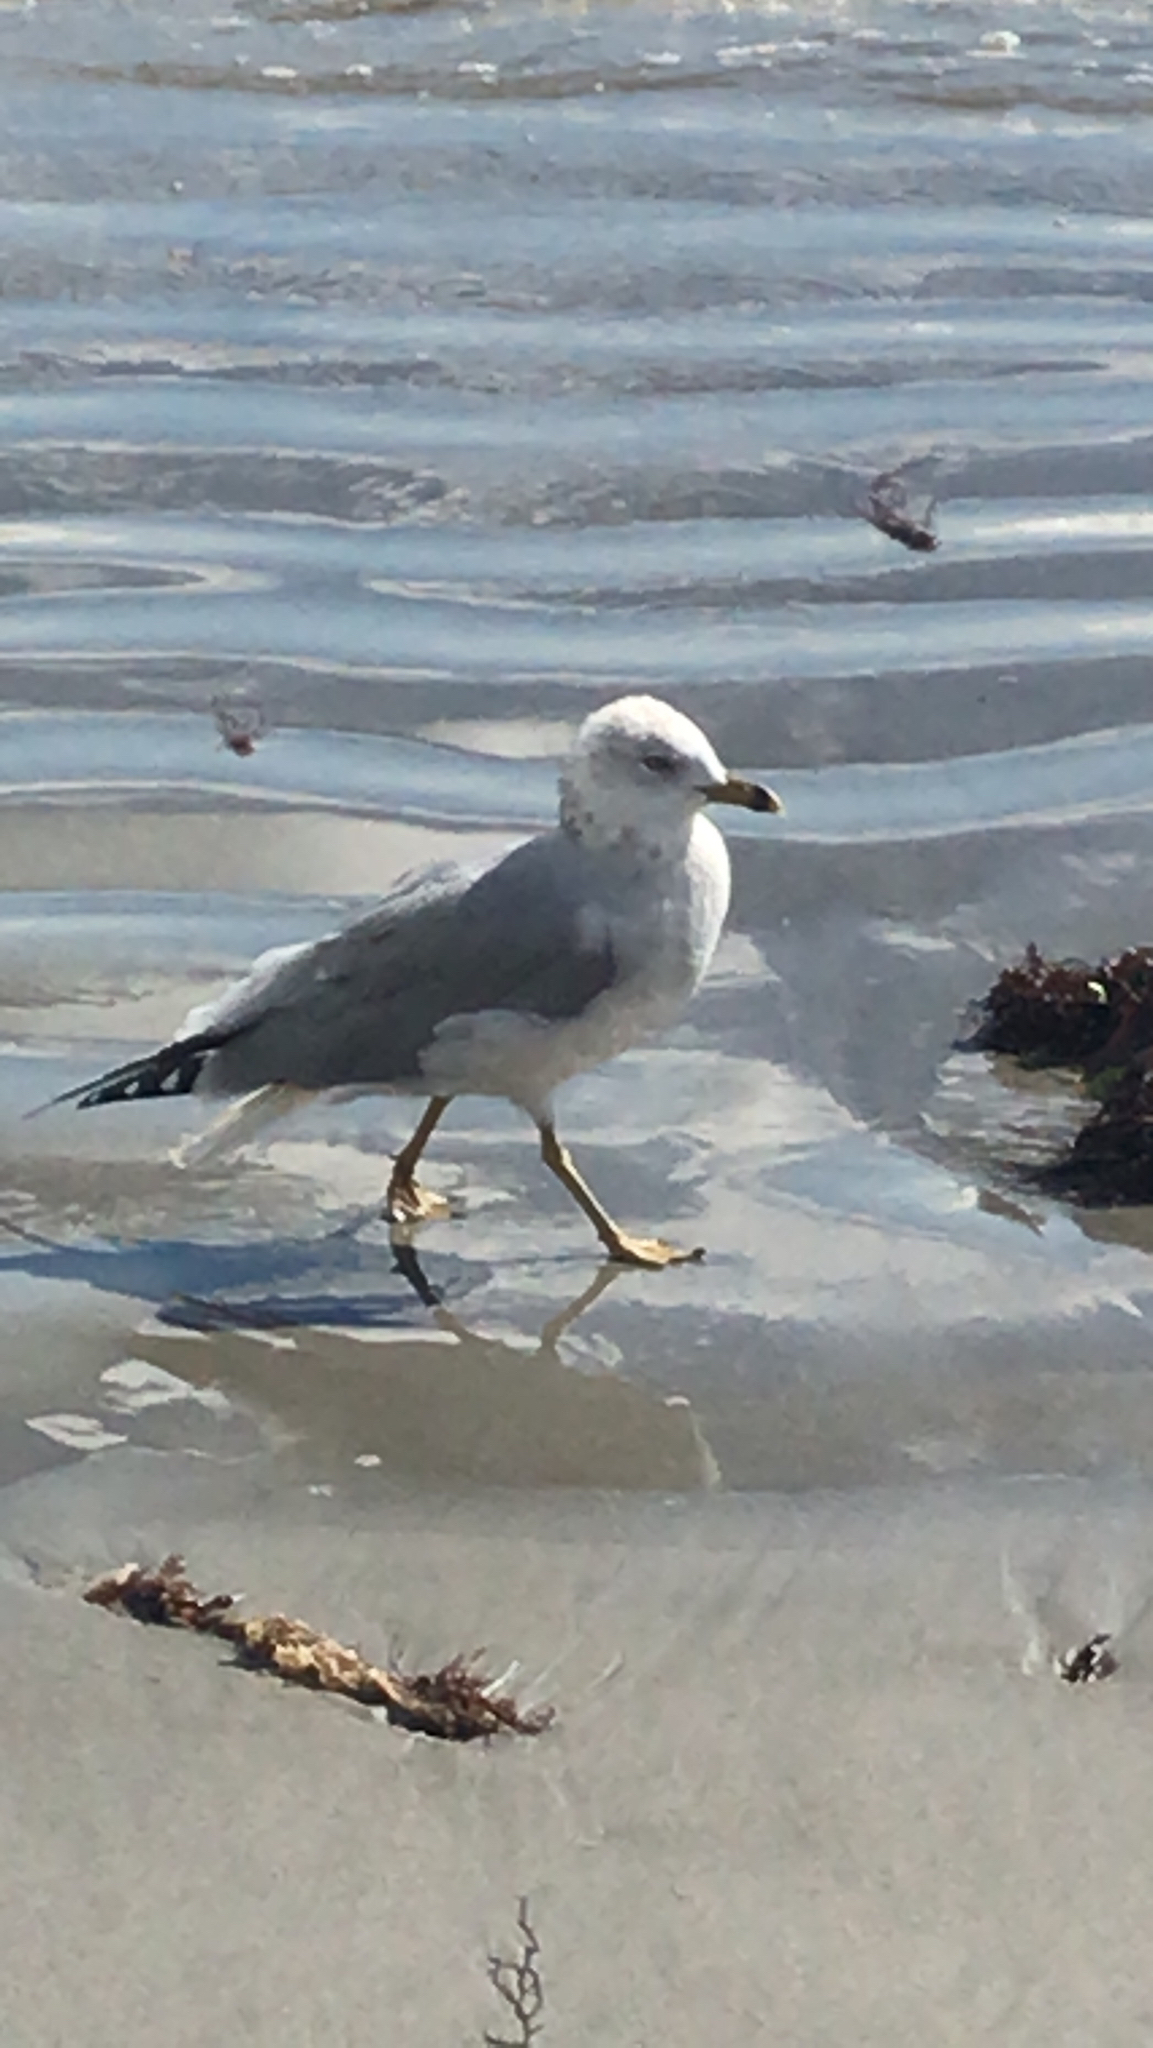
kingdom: Animalia
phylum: Chordata
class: Aves
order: Charadriiformes
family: Laridae
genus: Larus
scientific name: Larus delawarensis
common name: Ring-billed gull
